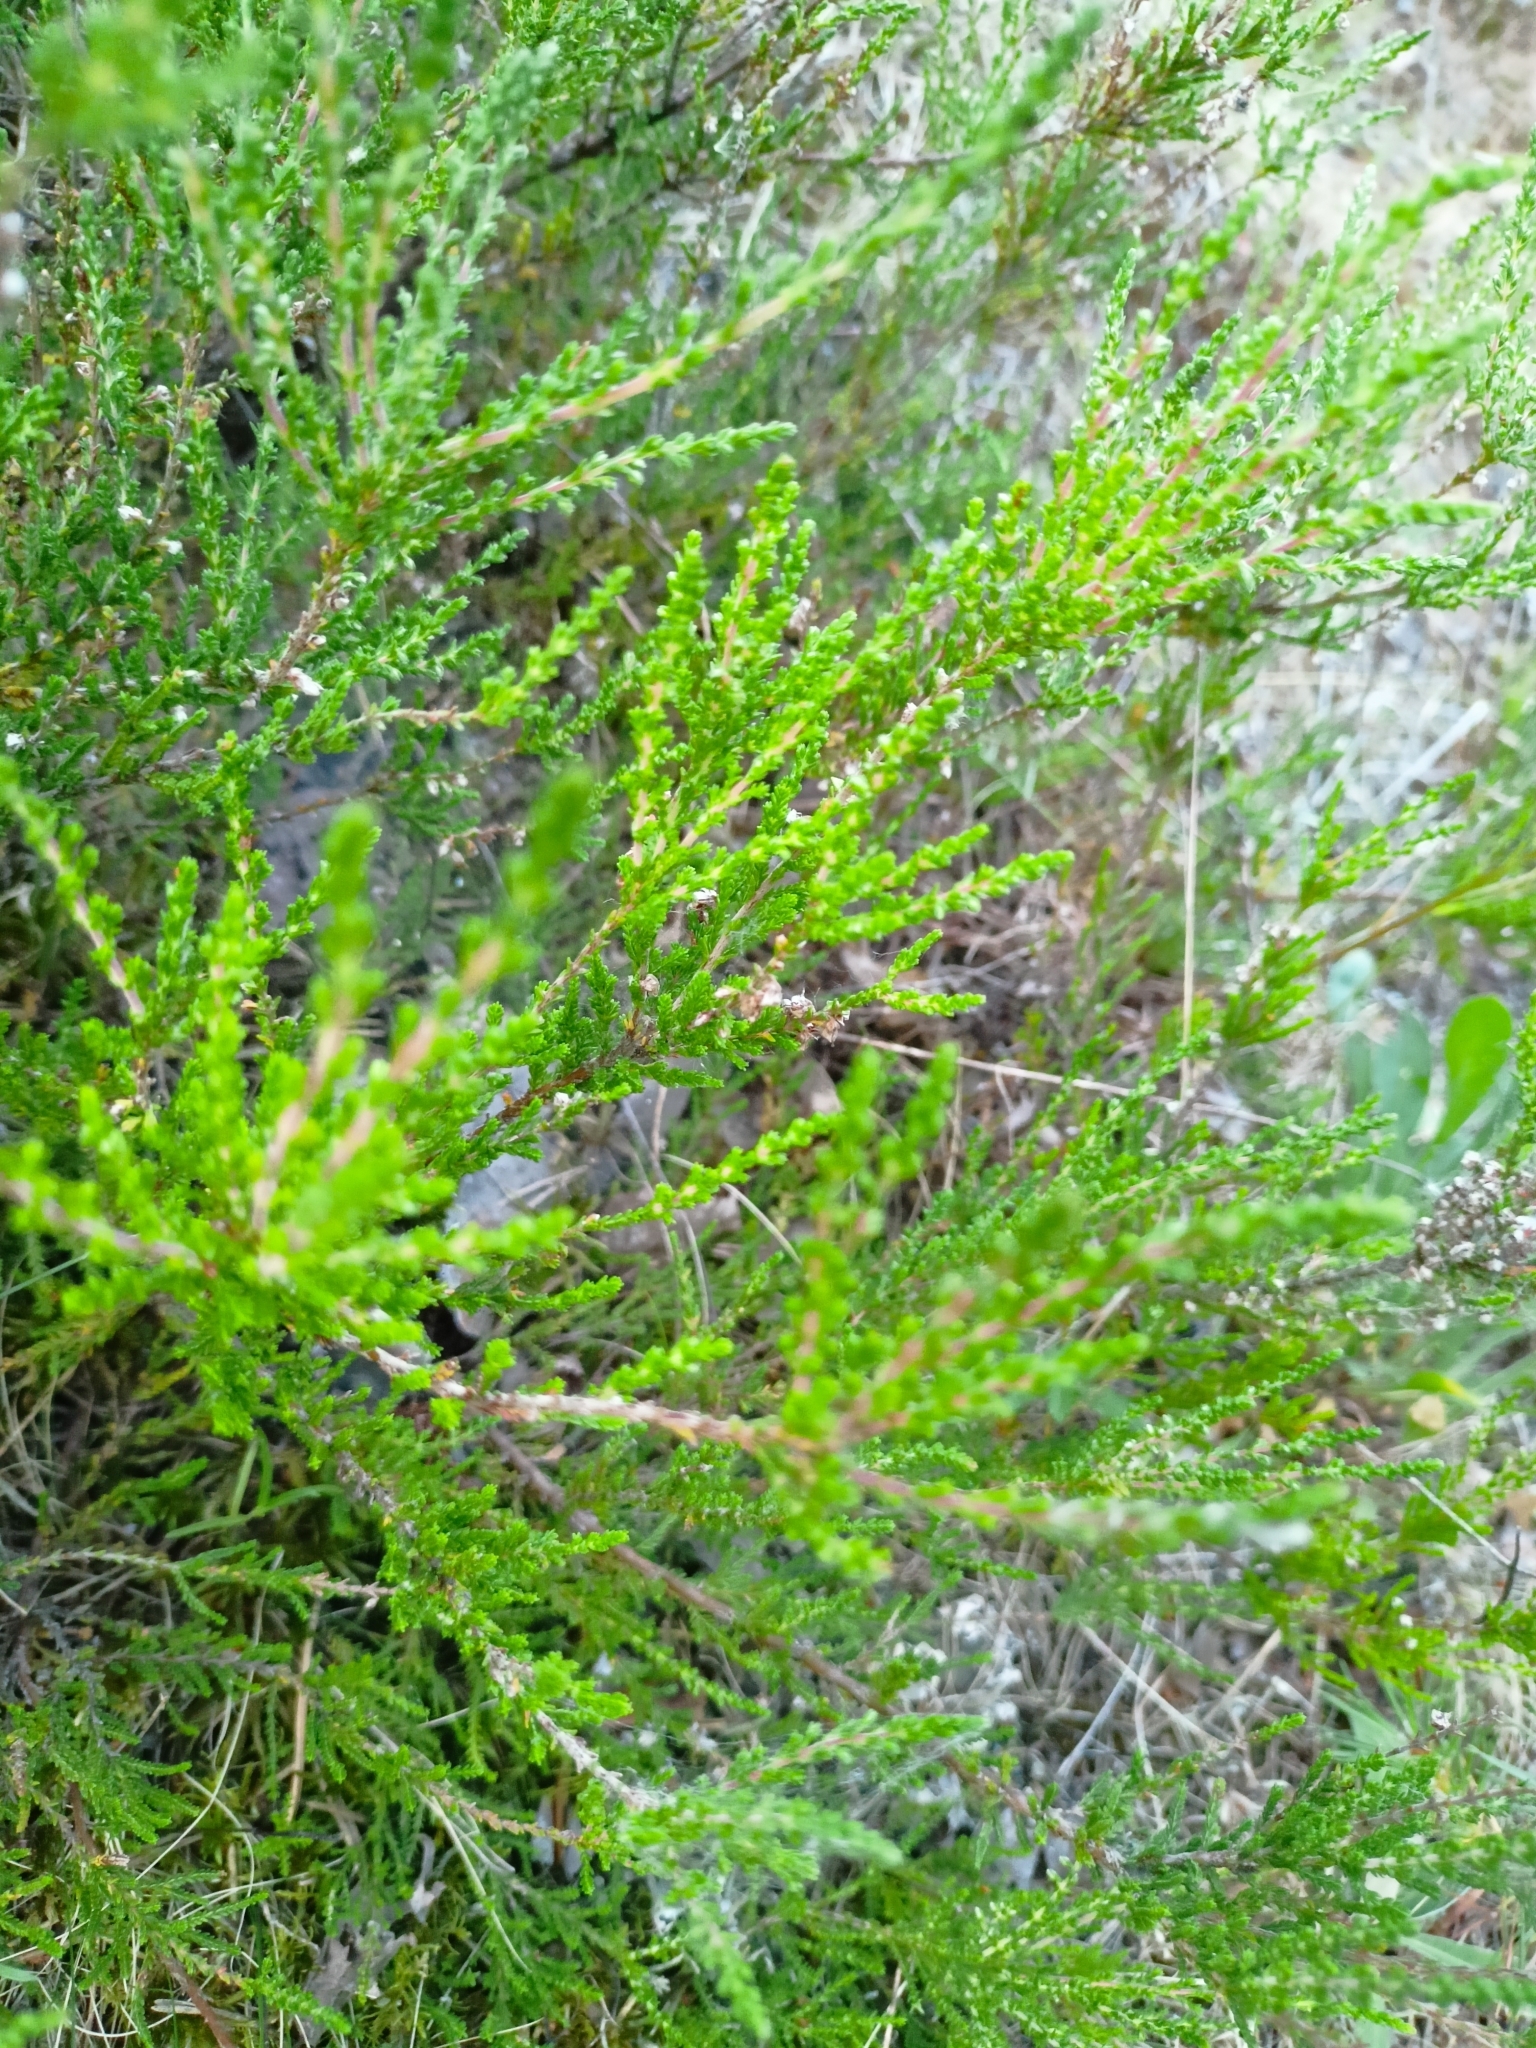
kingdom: Plantae
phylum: Tracheophyta
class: Magnoliopsida
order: Ericales
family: Ericaceae
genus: Calluna
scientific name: Calluna vulgaris
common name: Heather
